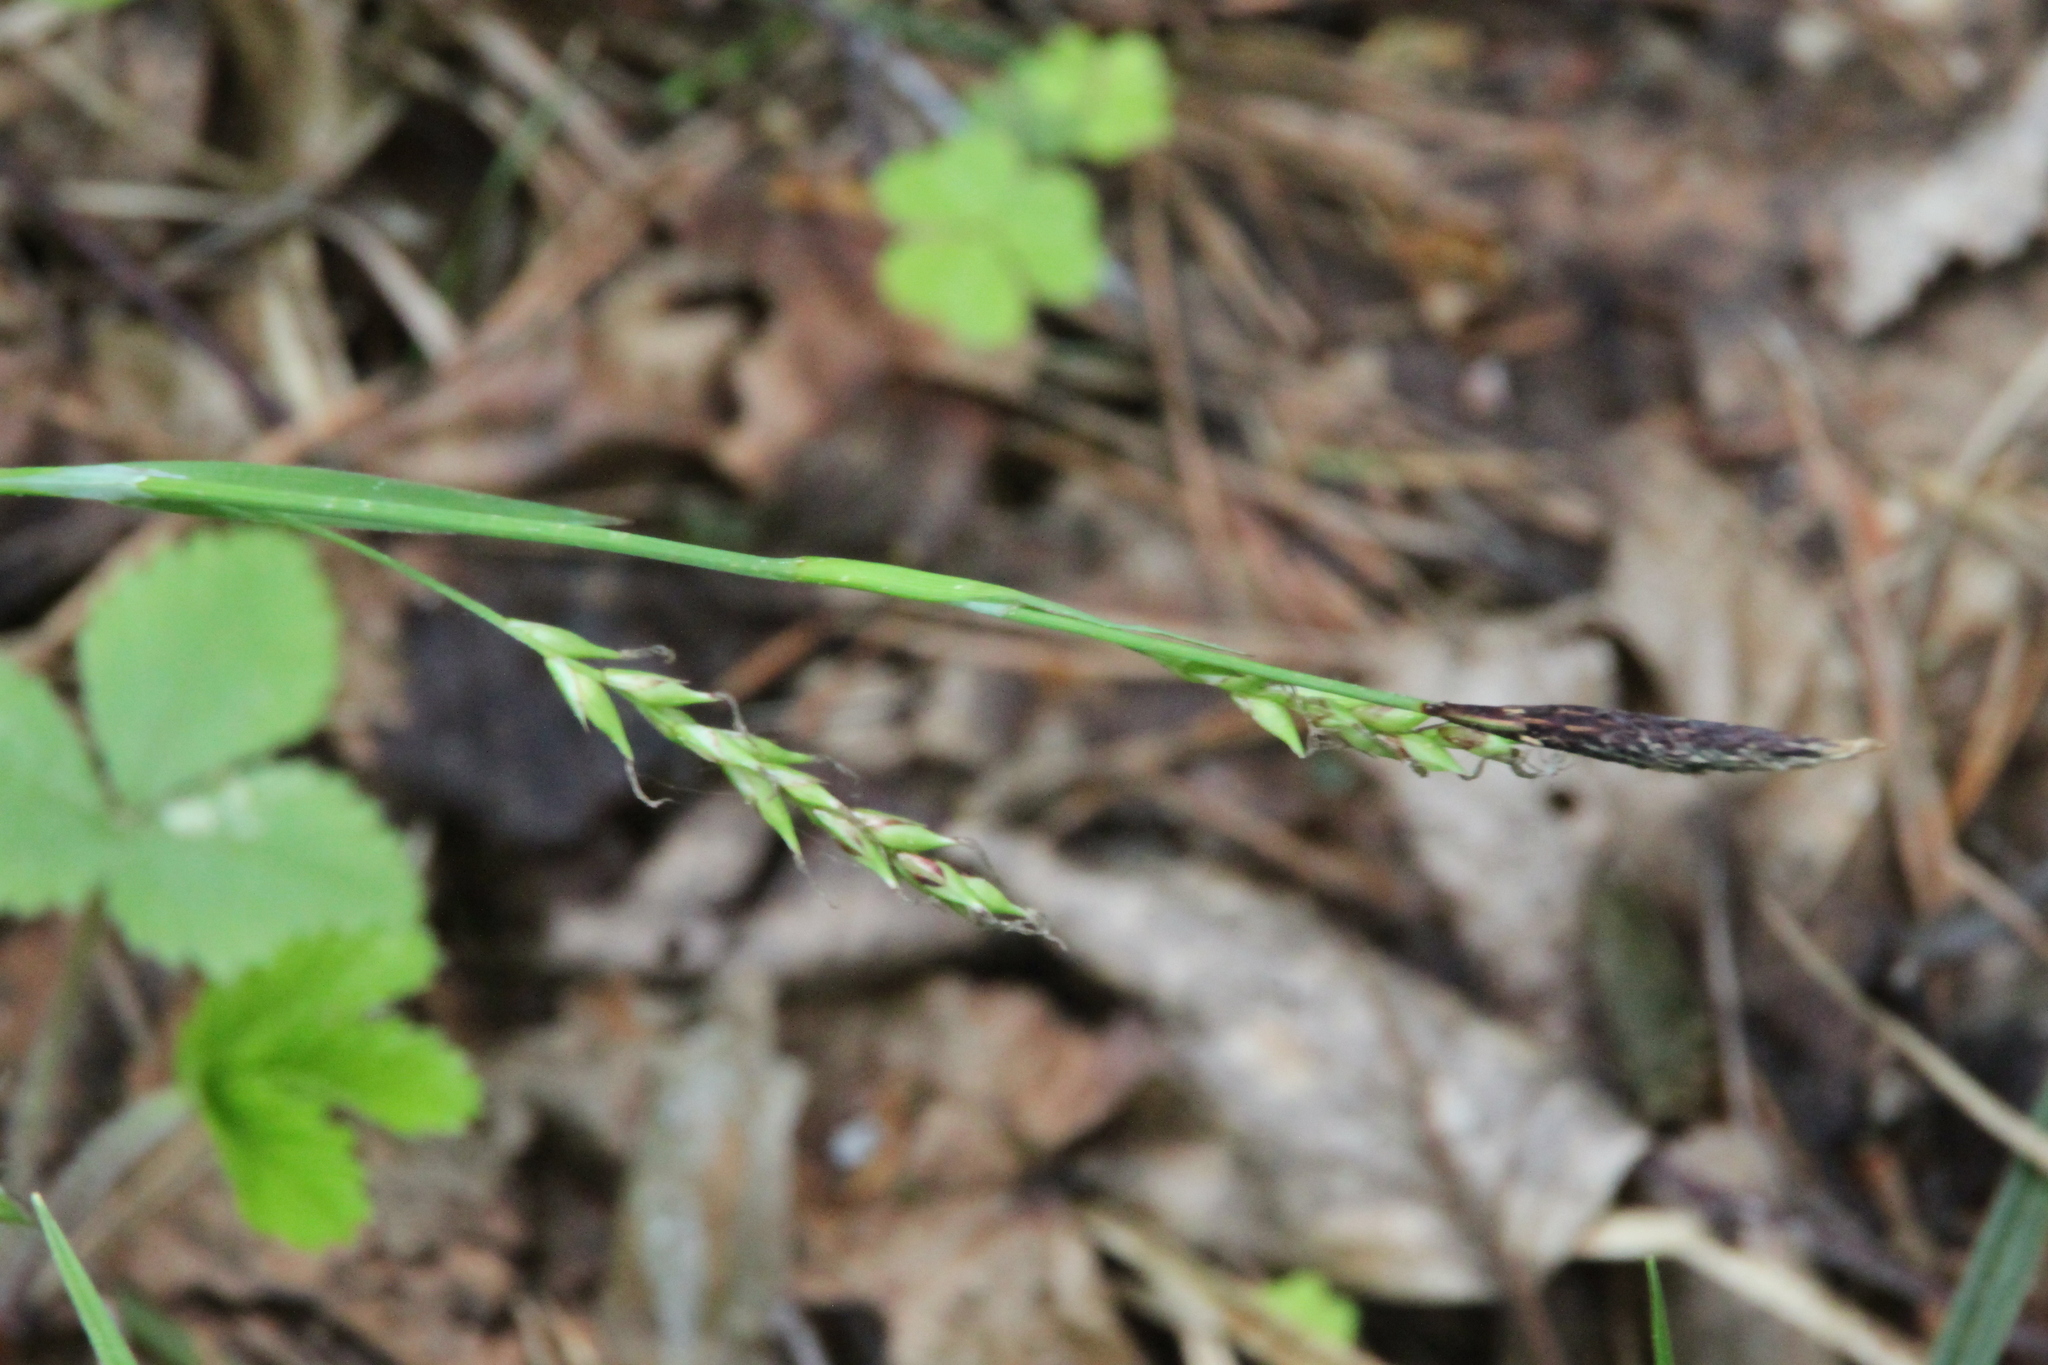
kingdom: Plantae
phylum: Tracheophyta
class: Liliopsida
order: Poales
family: Cyperaceae
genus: Carex
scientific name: Carex pilosa
